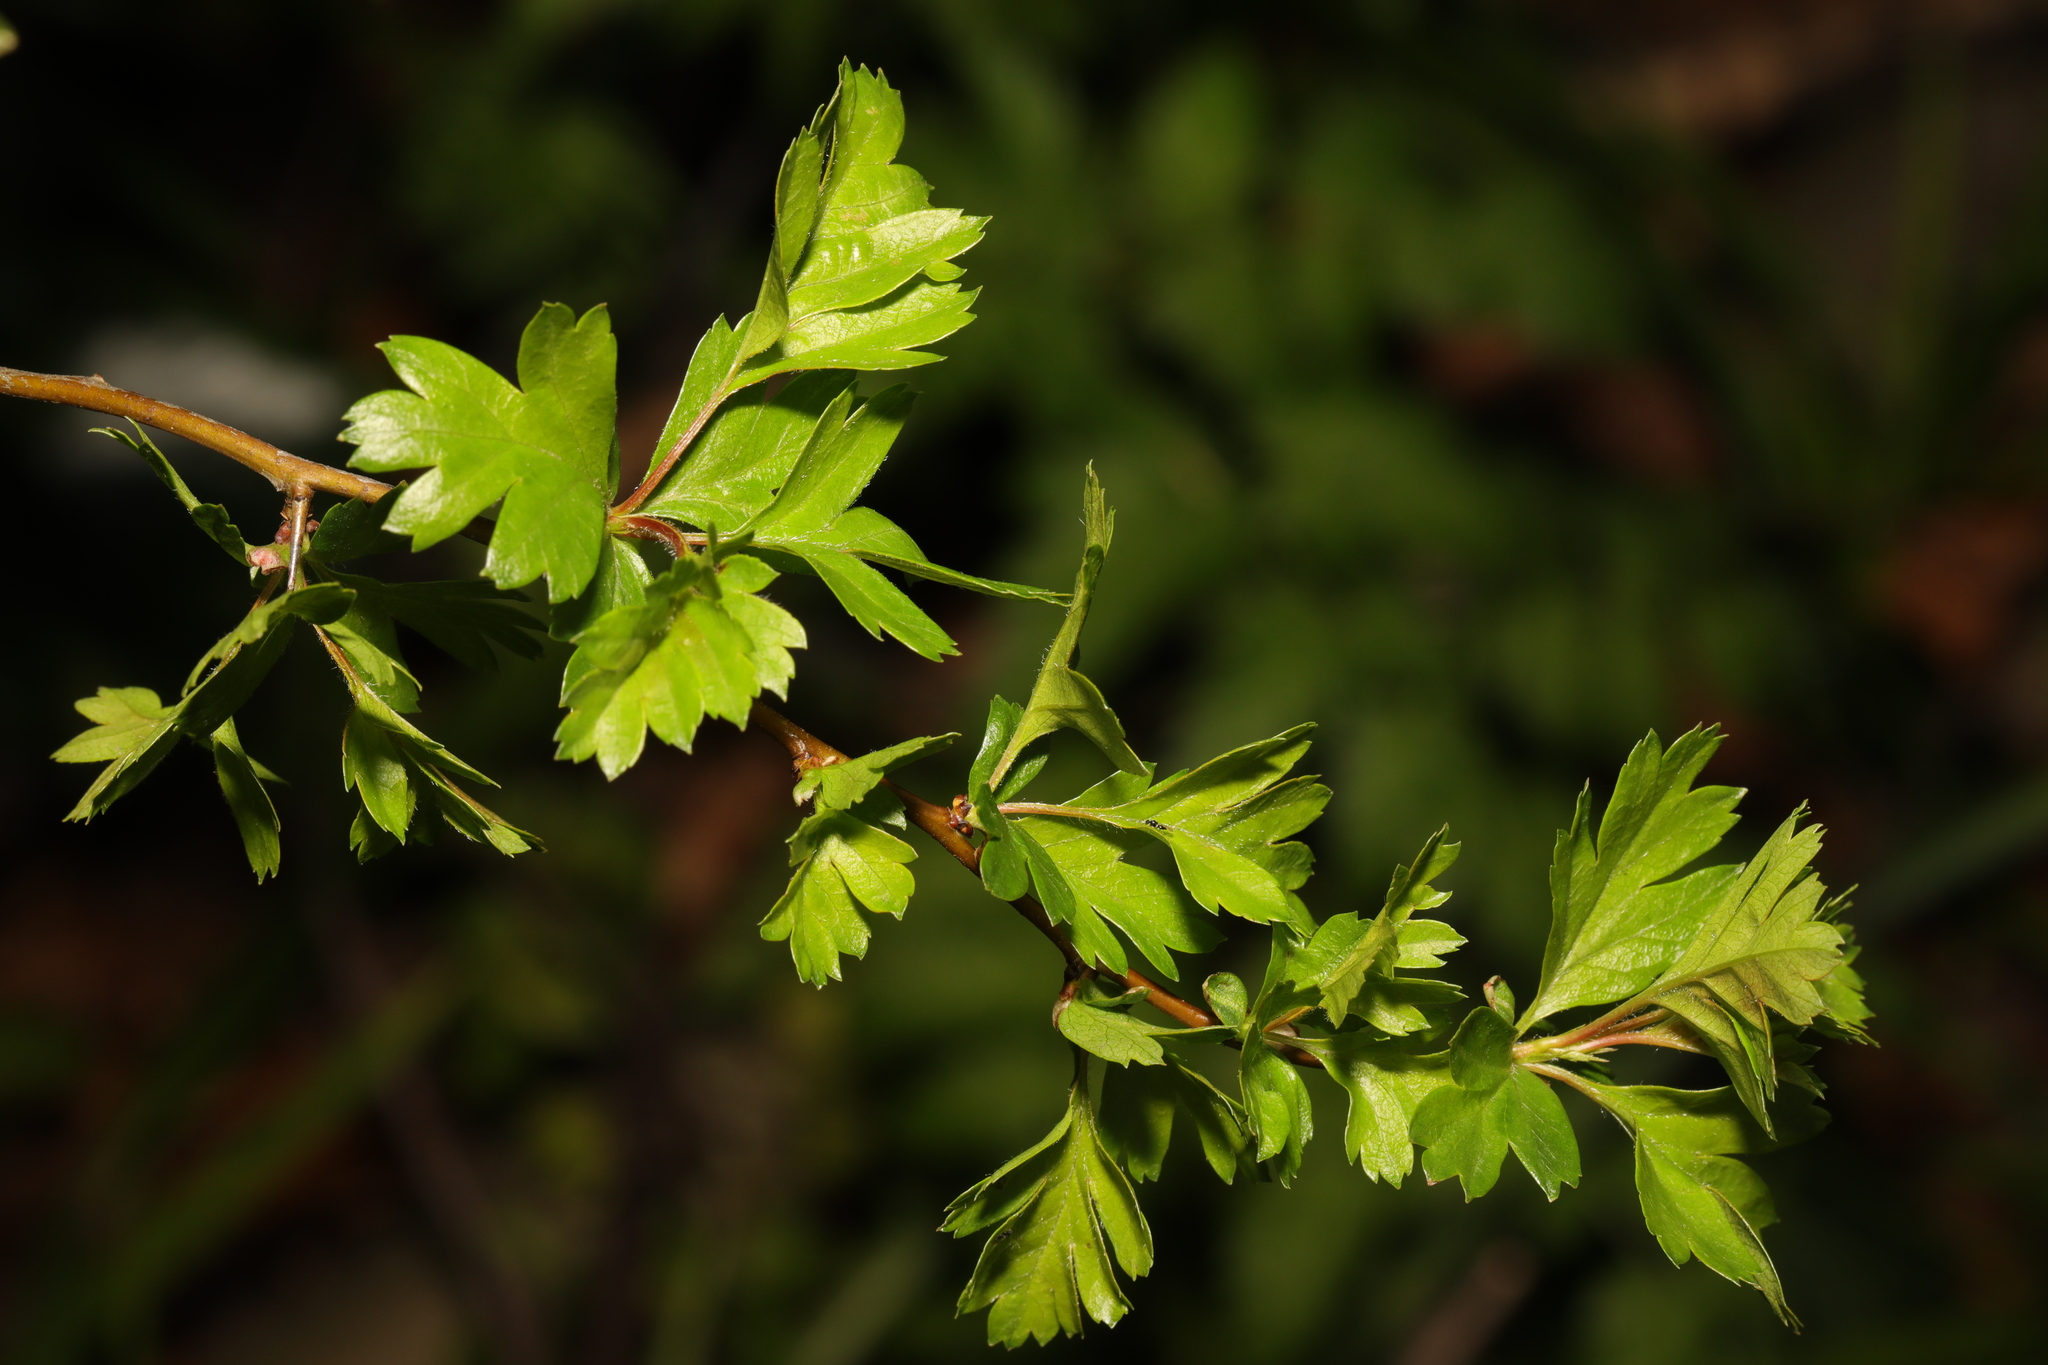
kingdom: Plantae
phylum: Tracheophyta
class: Magnoliopsida
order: Rosales
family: Rosaceae
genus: Crataegus
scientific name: Crataegus monogyna
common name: Hawthorn
